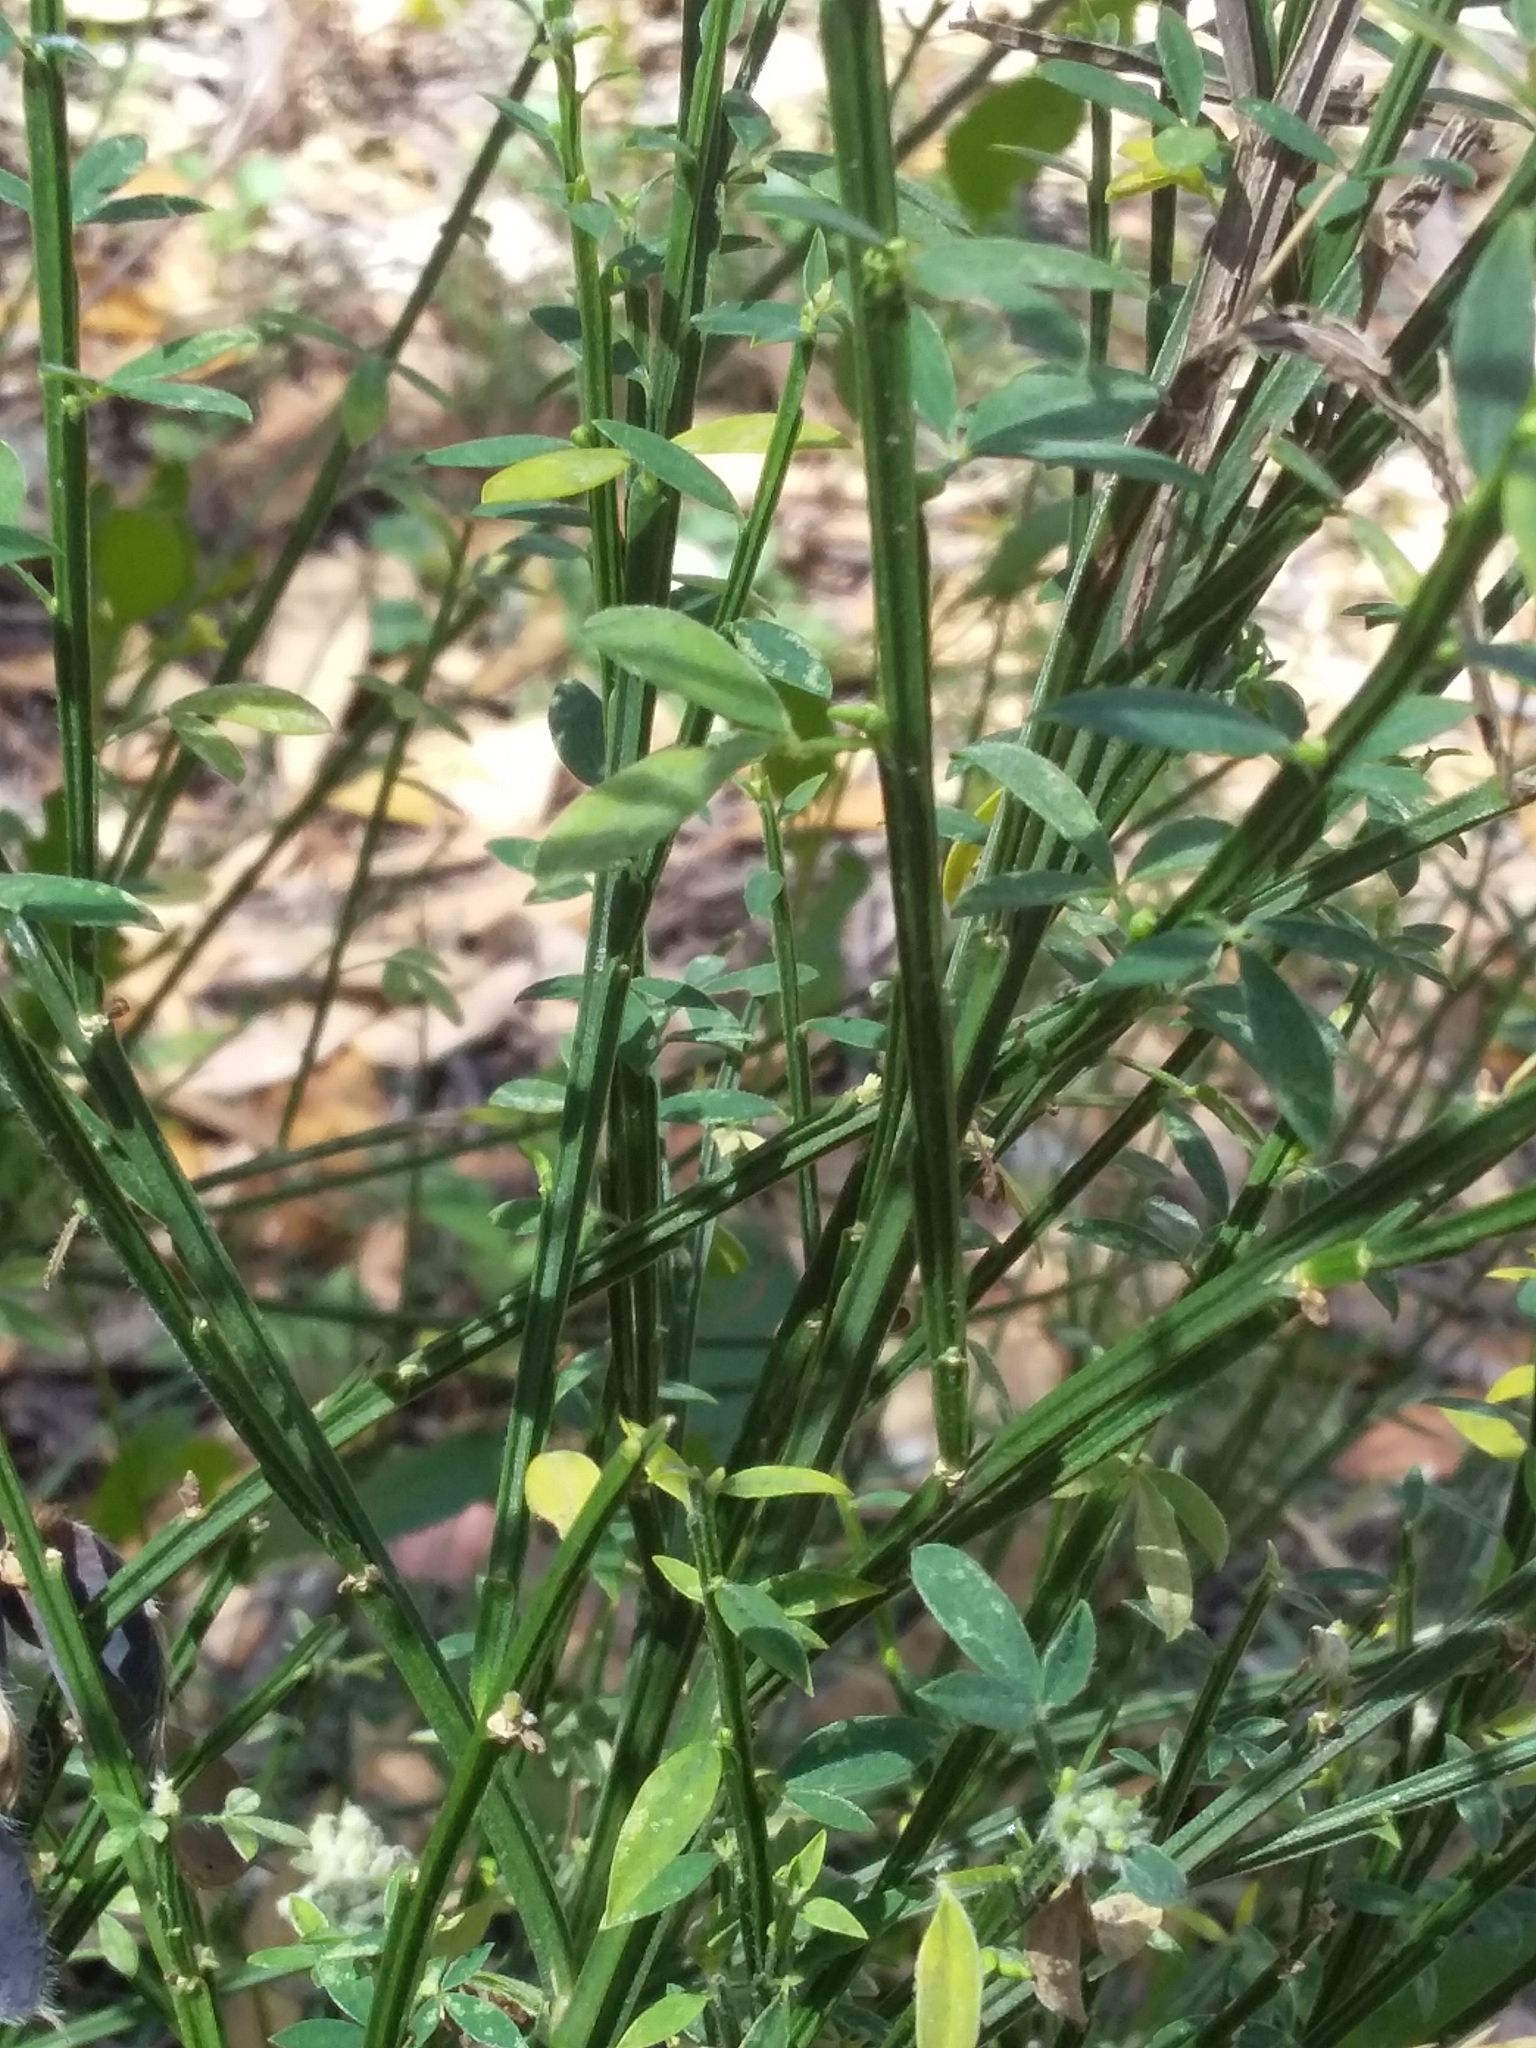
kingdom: Plantae
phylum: Tracheophyta
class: Magnoliopsida
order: Fabales
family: Fabaceae
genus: Cytisus
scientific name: Cytisus scoparius
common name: Scotch broom
